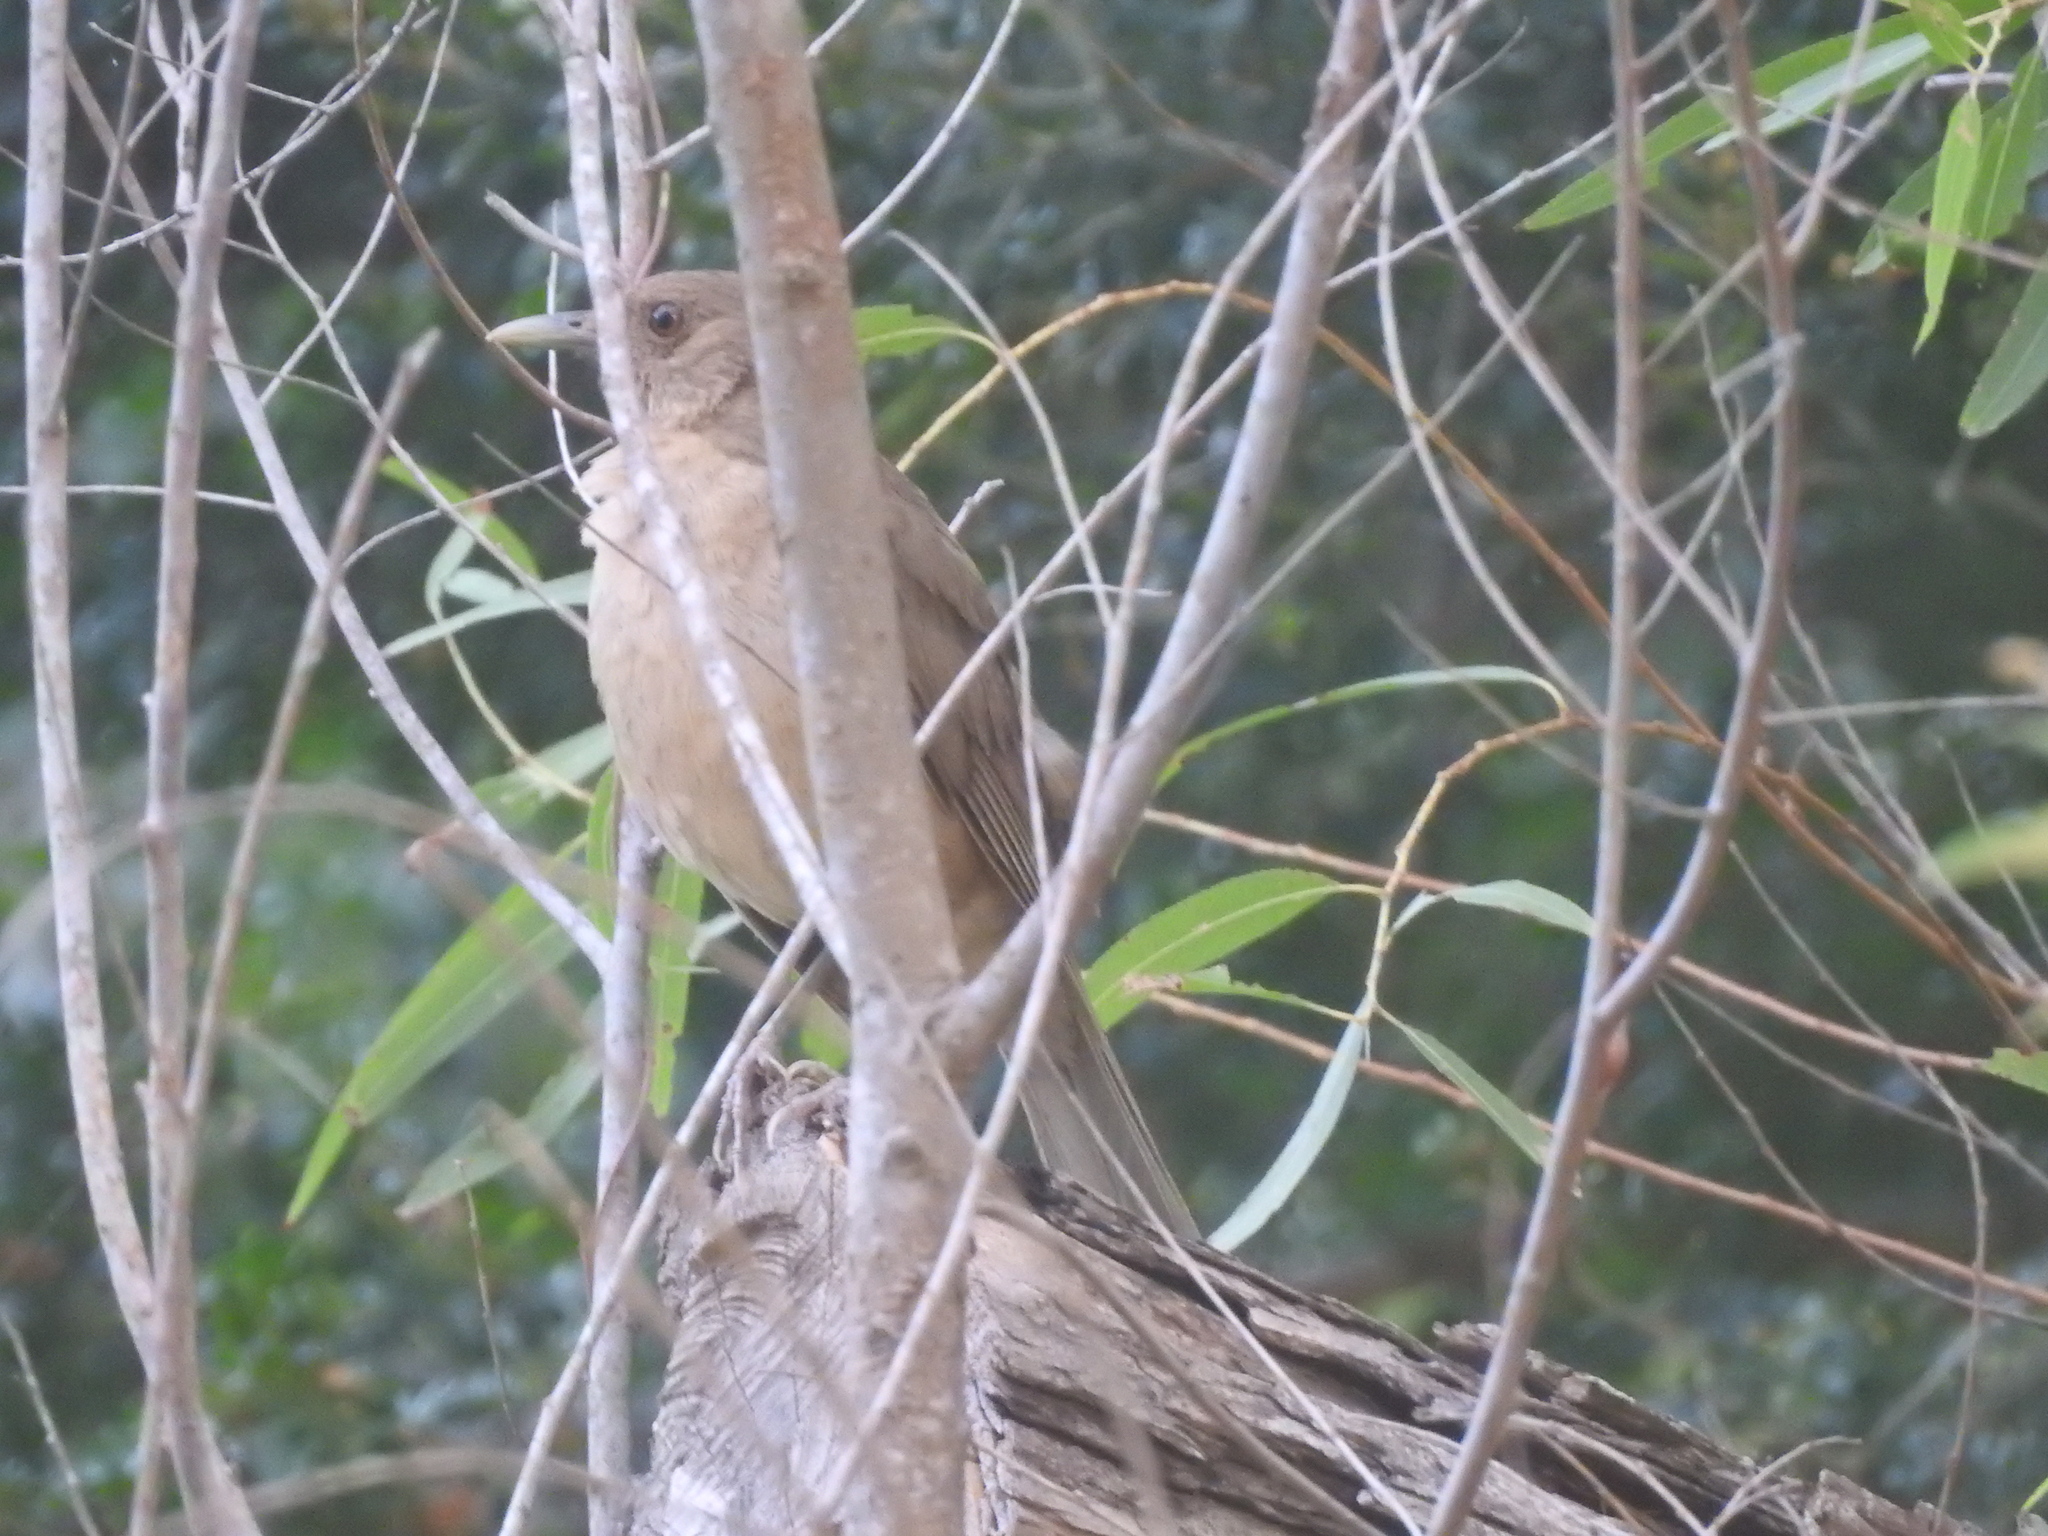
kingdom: Animalia
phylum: Chordata
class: Aves
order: Passeriformes
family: Turdidae
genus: Turdus
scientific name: Turdus grayi
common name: Clay-colored thrush
